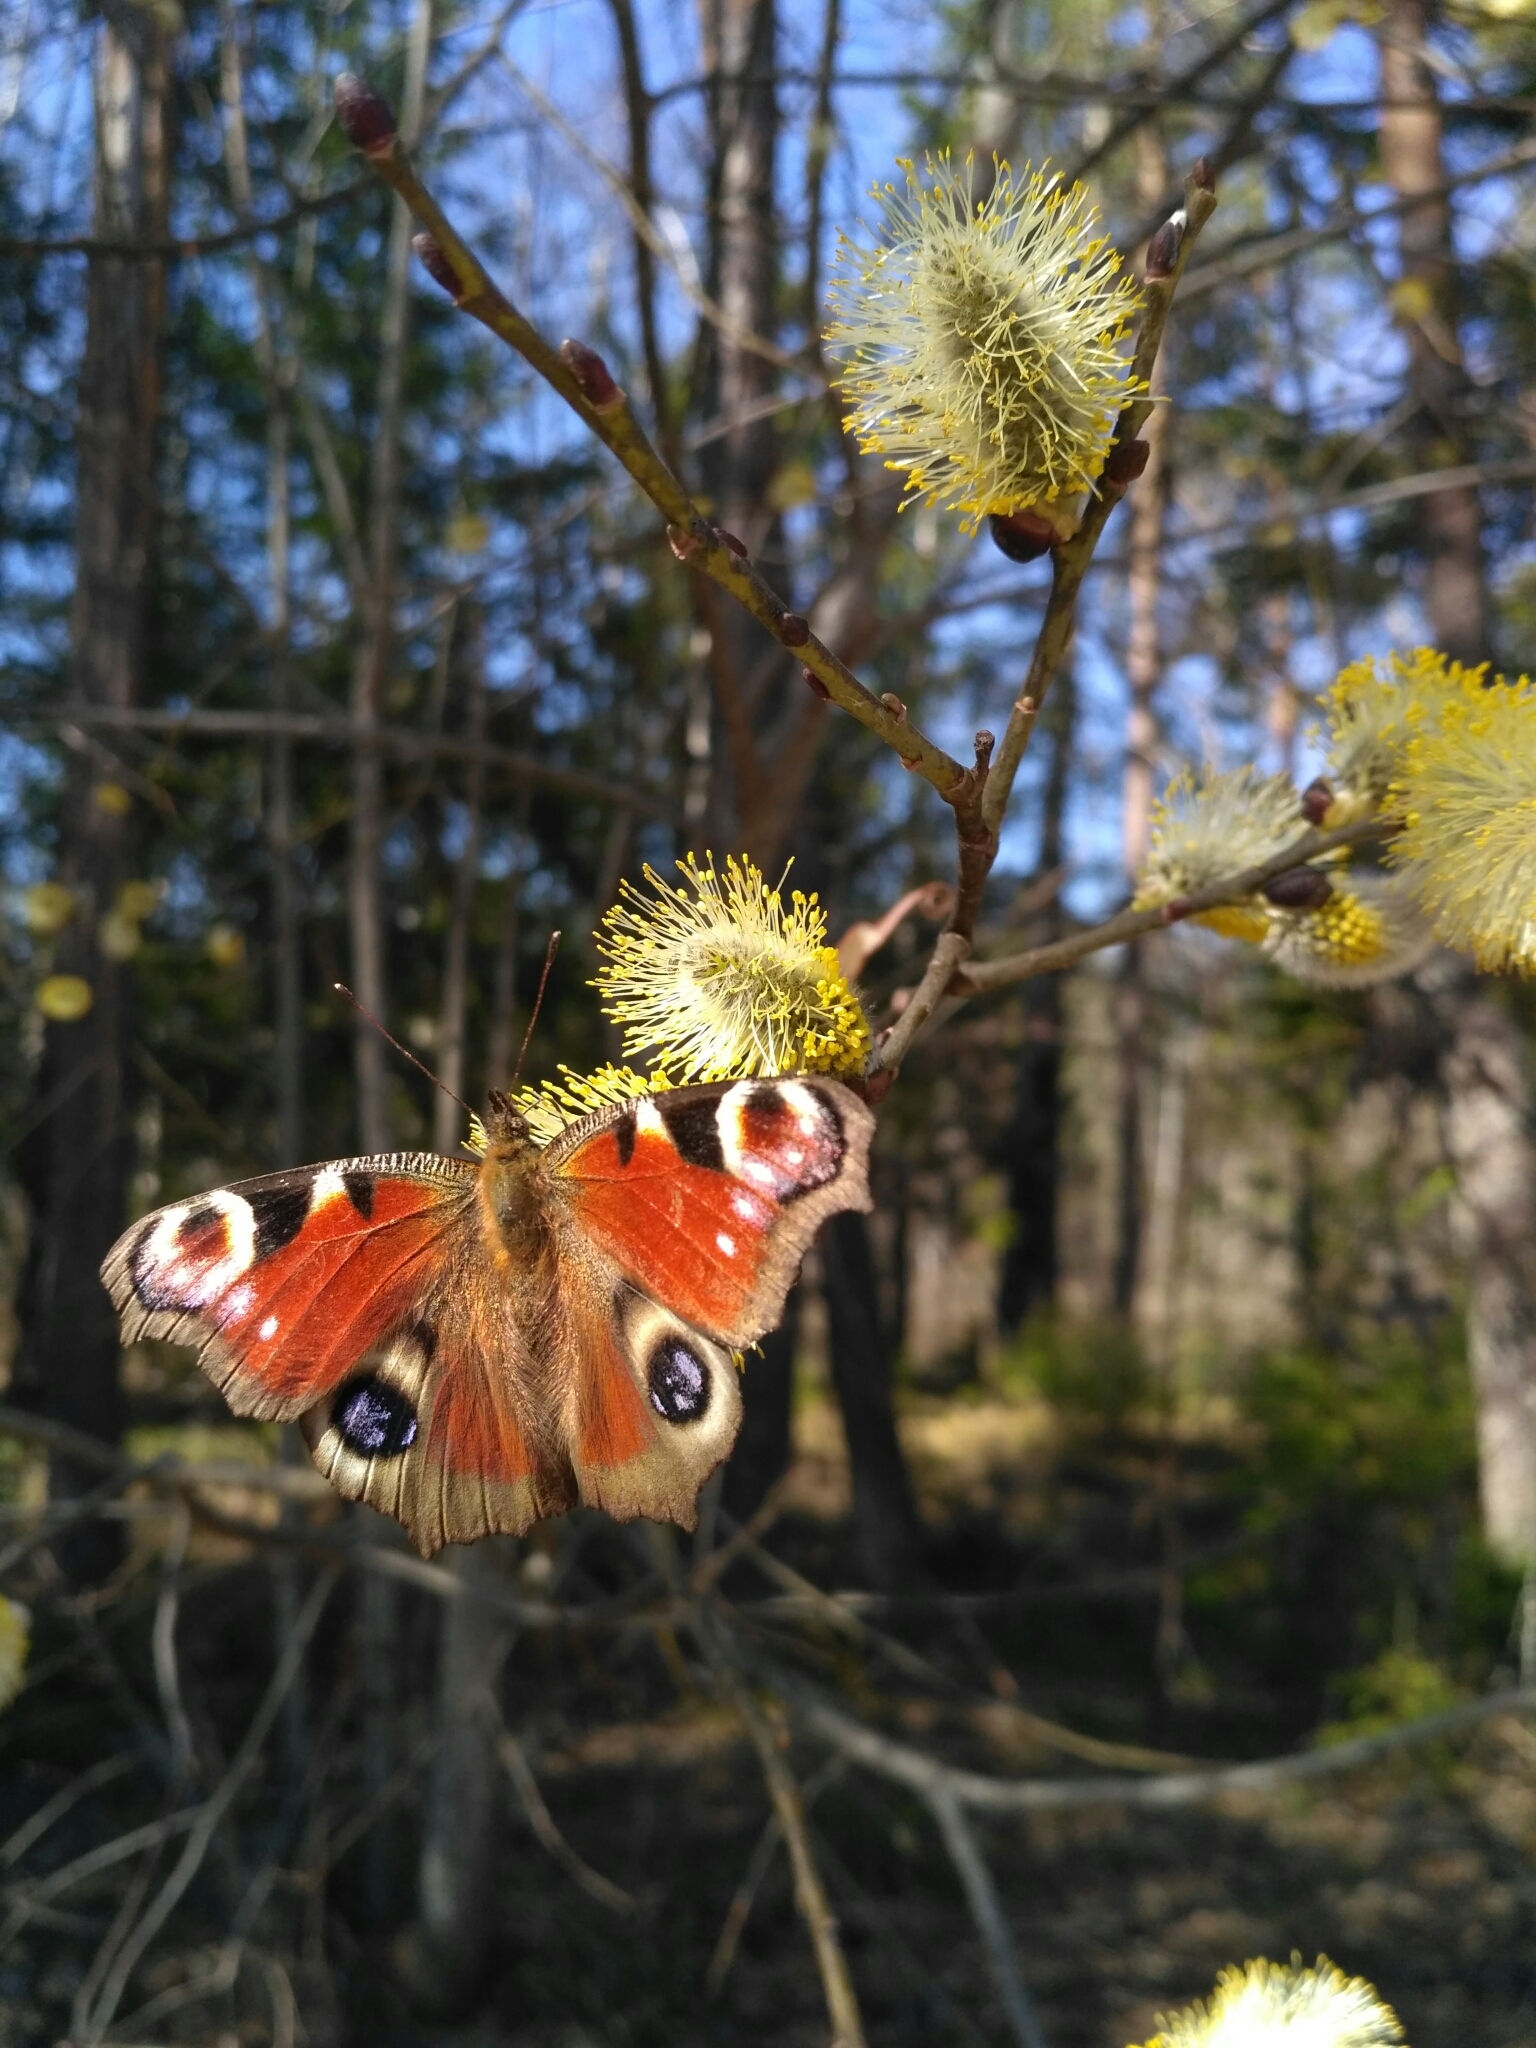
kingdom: Animalia
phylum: Arthropoda
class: Insecta
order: Lepidoptera
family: Nymphalidae
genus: Aglais
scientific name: Aglais io
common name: Peacock
